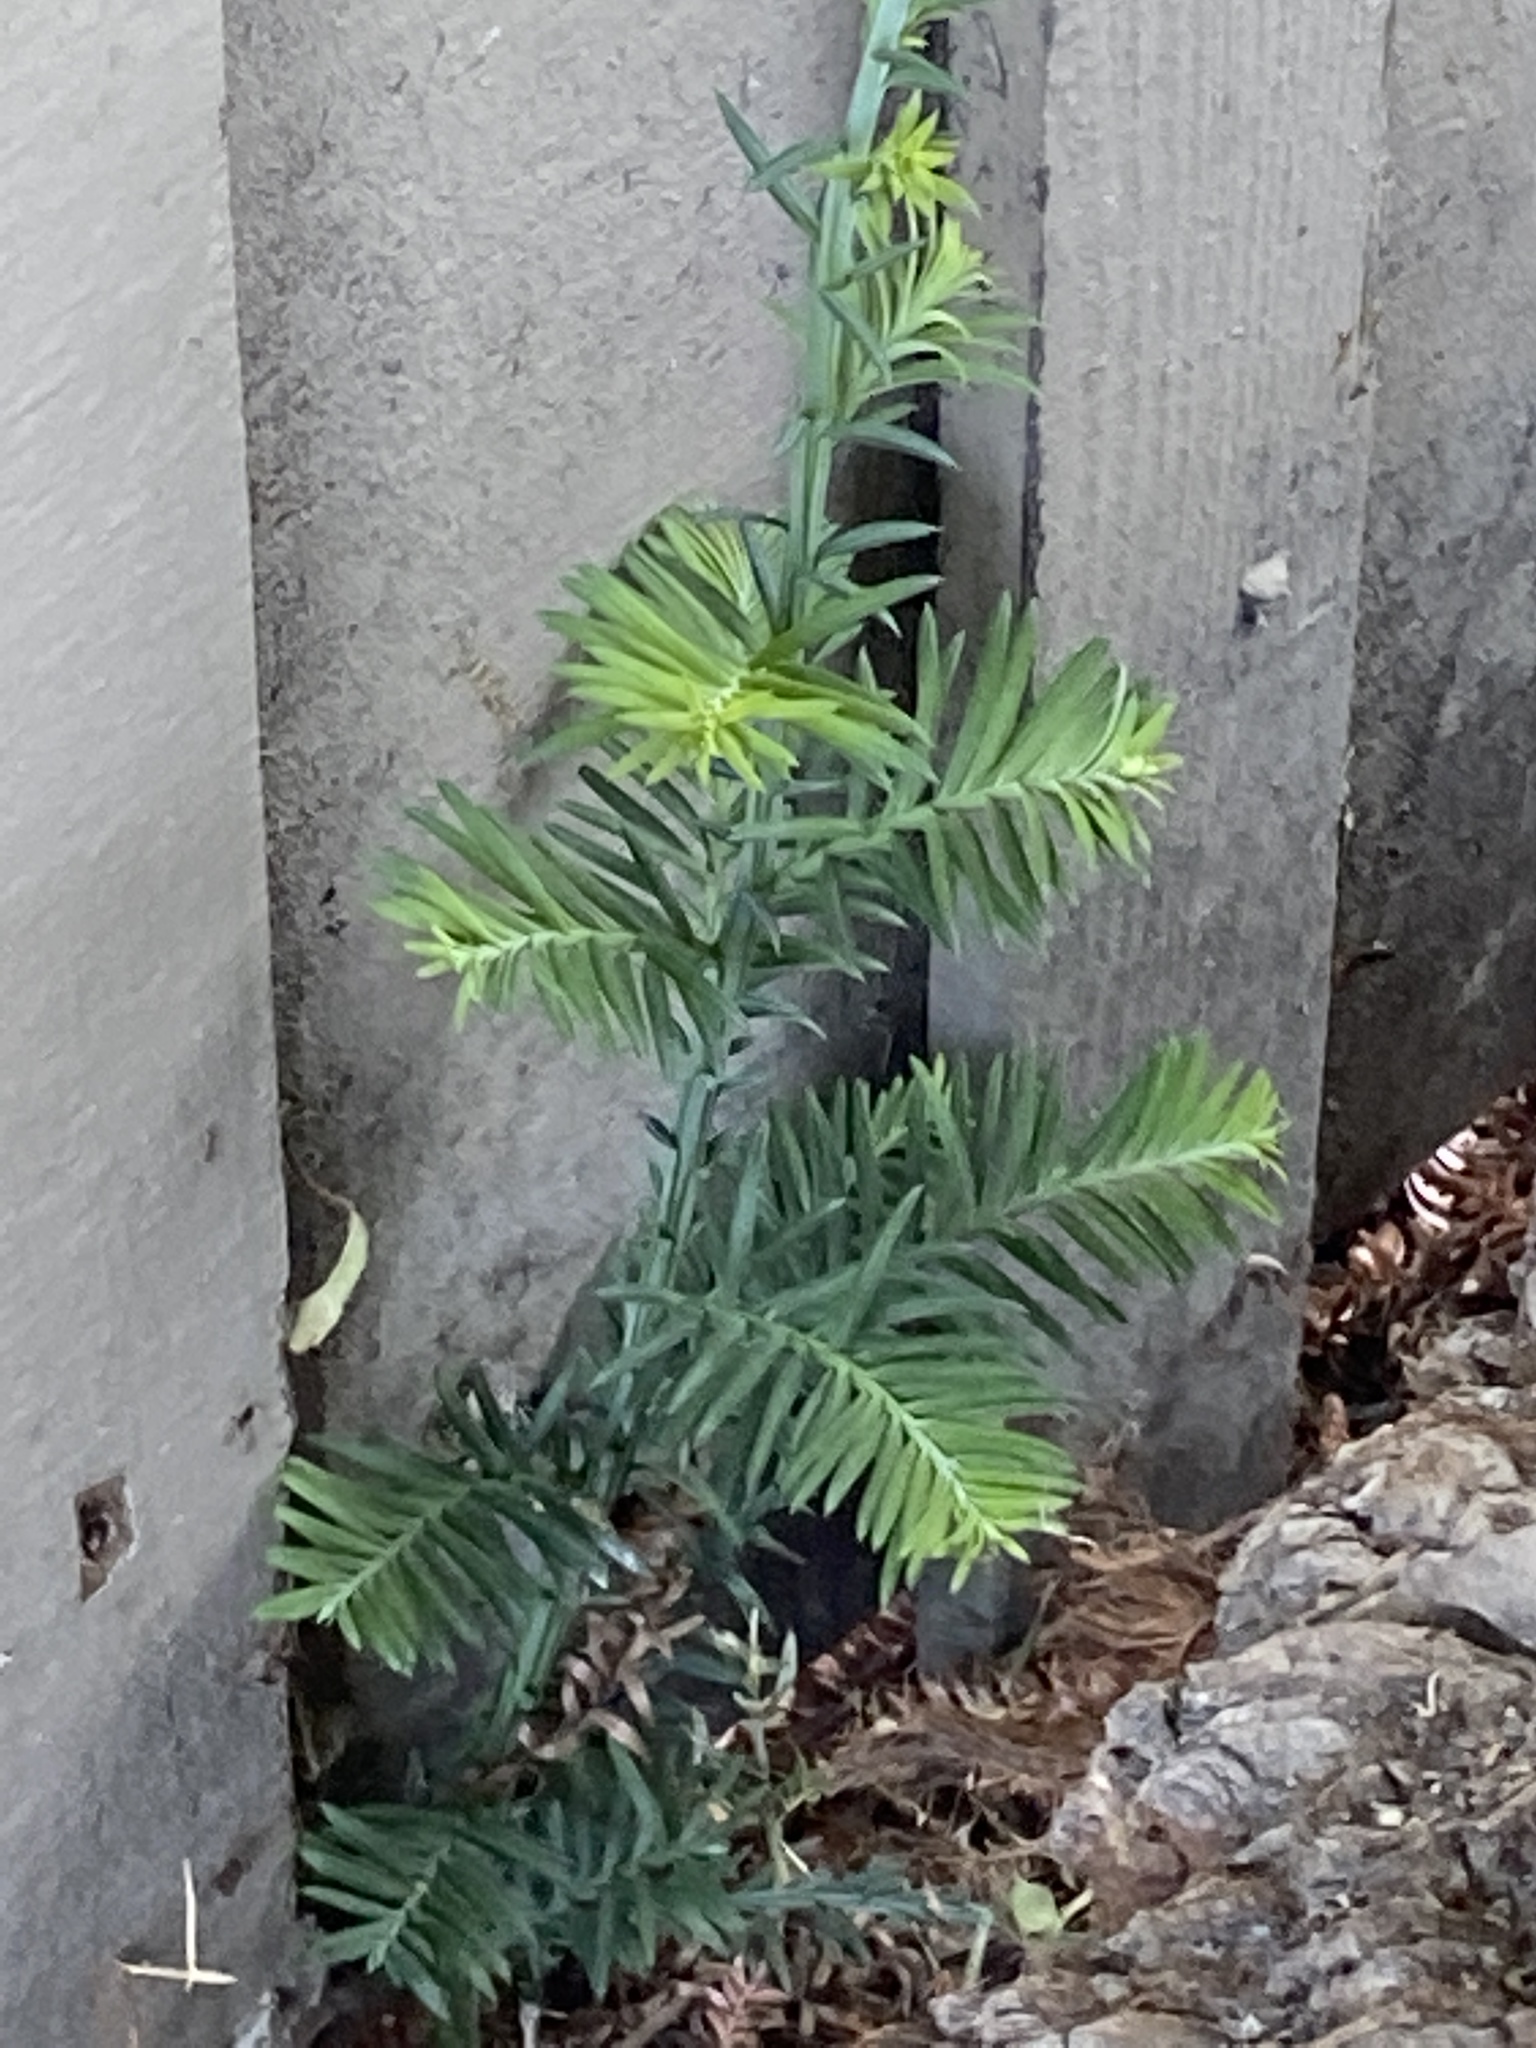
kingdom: Plantae
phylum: Tracheophyta
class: Pinopsida
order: Pinales
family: Cupressaceae
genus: Sequoia
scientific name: Sequoia sempervirens
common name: Coast redwood
